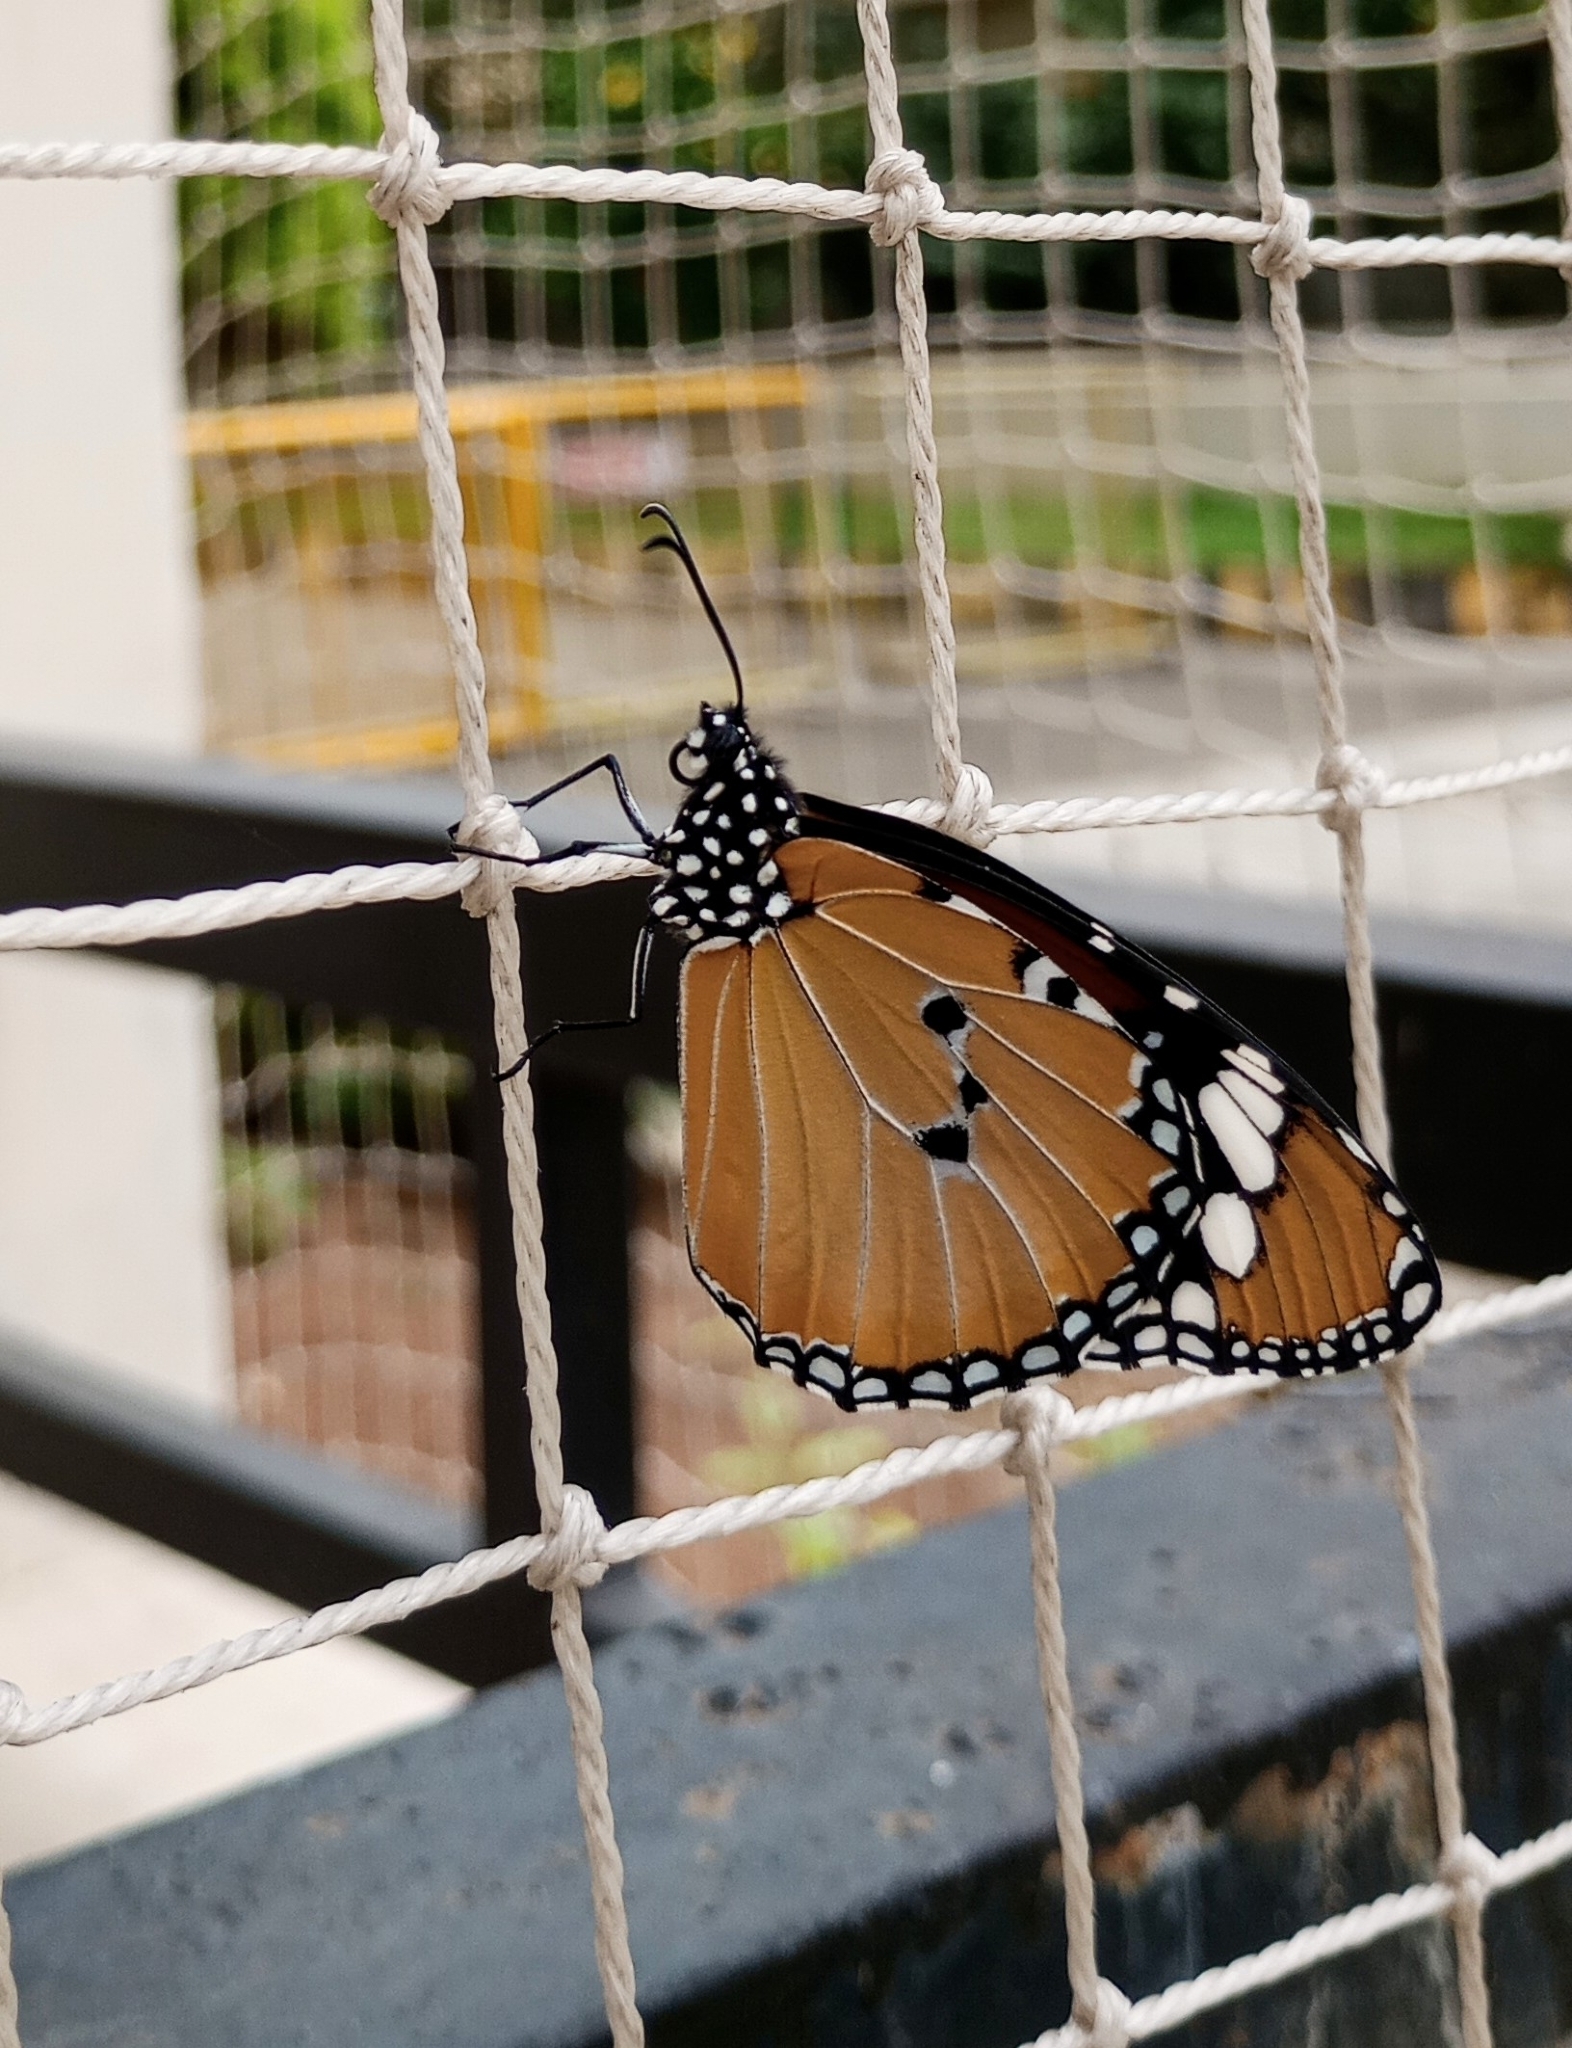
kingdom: Animalia
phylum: Arthropoda
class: Insecta
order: Lepidoptera
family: Nymphalidae
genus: Danaus
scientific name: Danaus chrysippus
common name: Plain tiger
